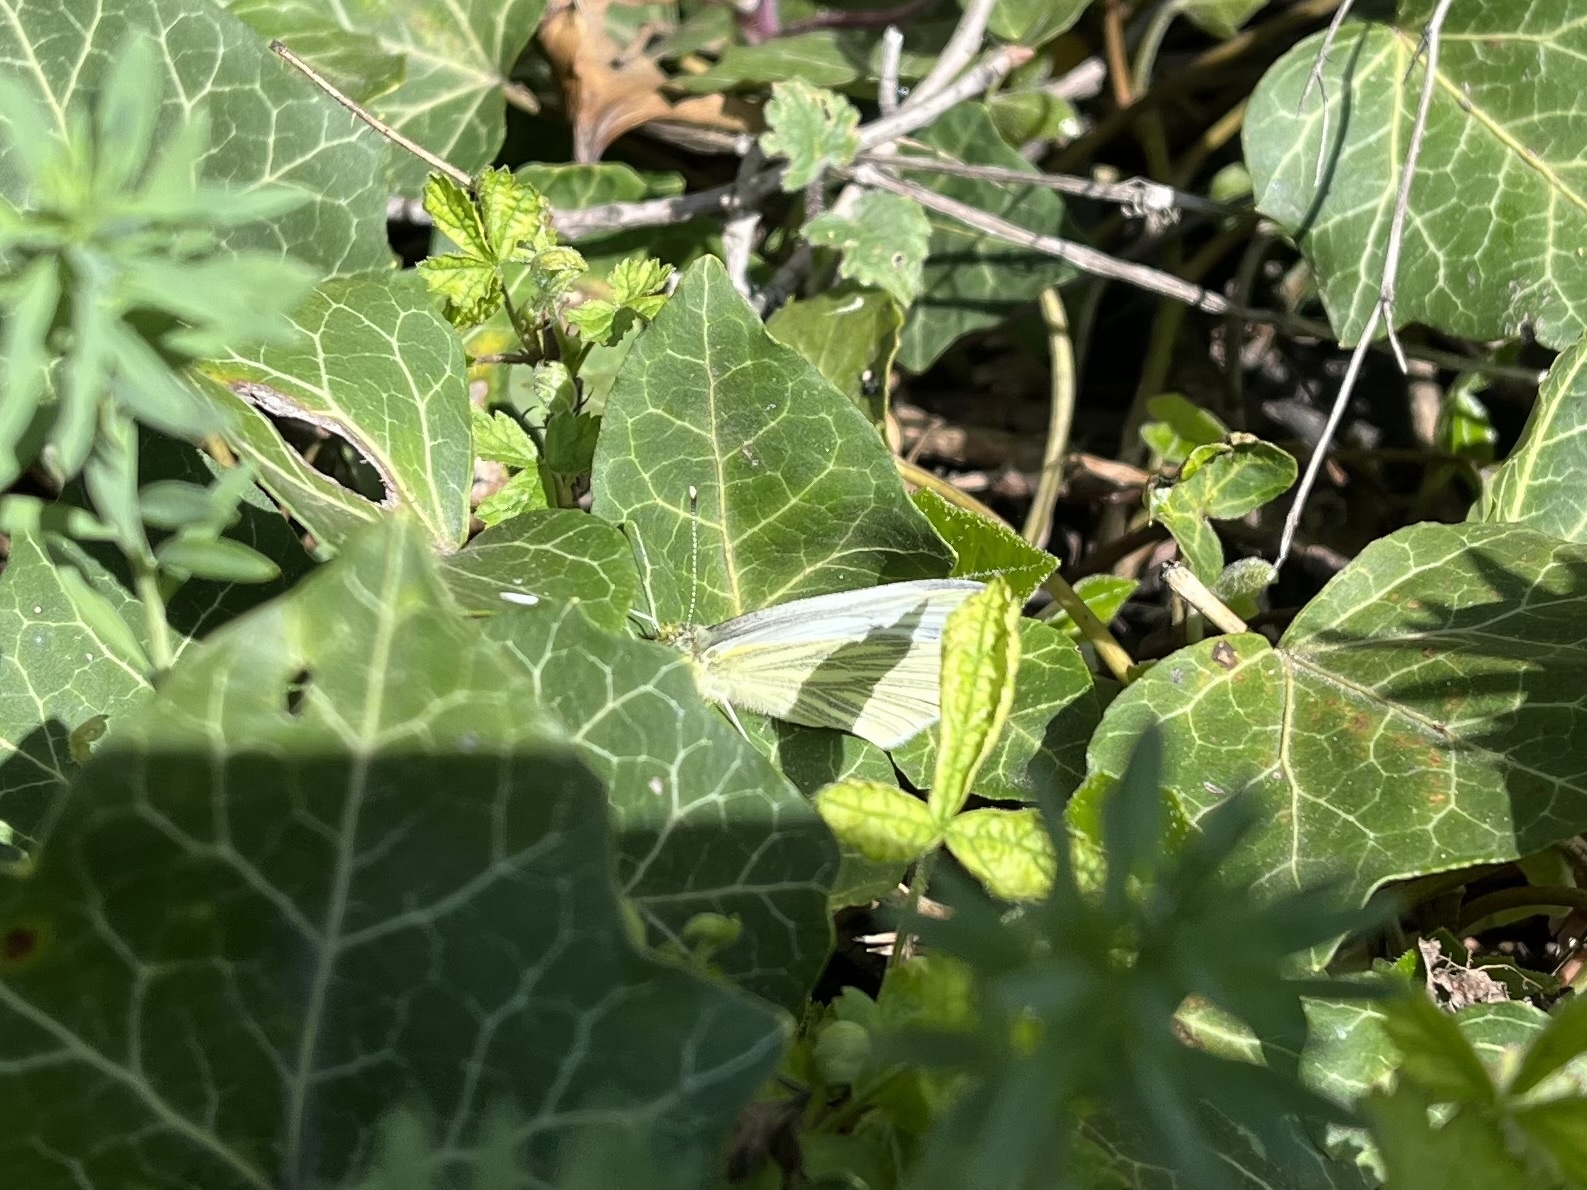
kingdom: Animalia
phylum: Arthropoda
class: Insecta
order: Lepidoptera
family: Pieridae
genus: Pieris
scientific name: Pieris napi
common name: Green-veined white
